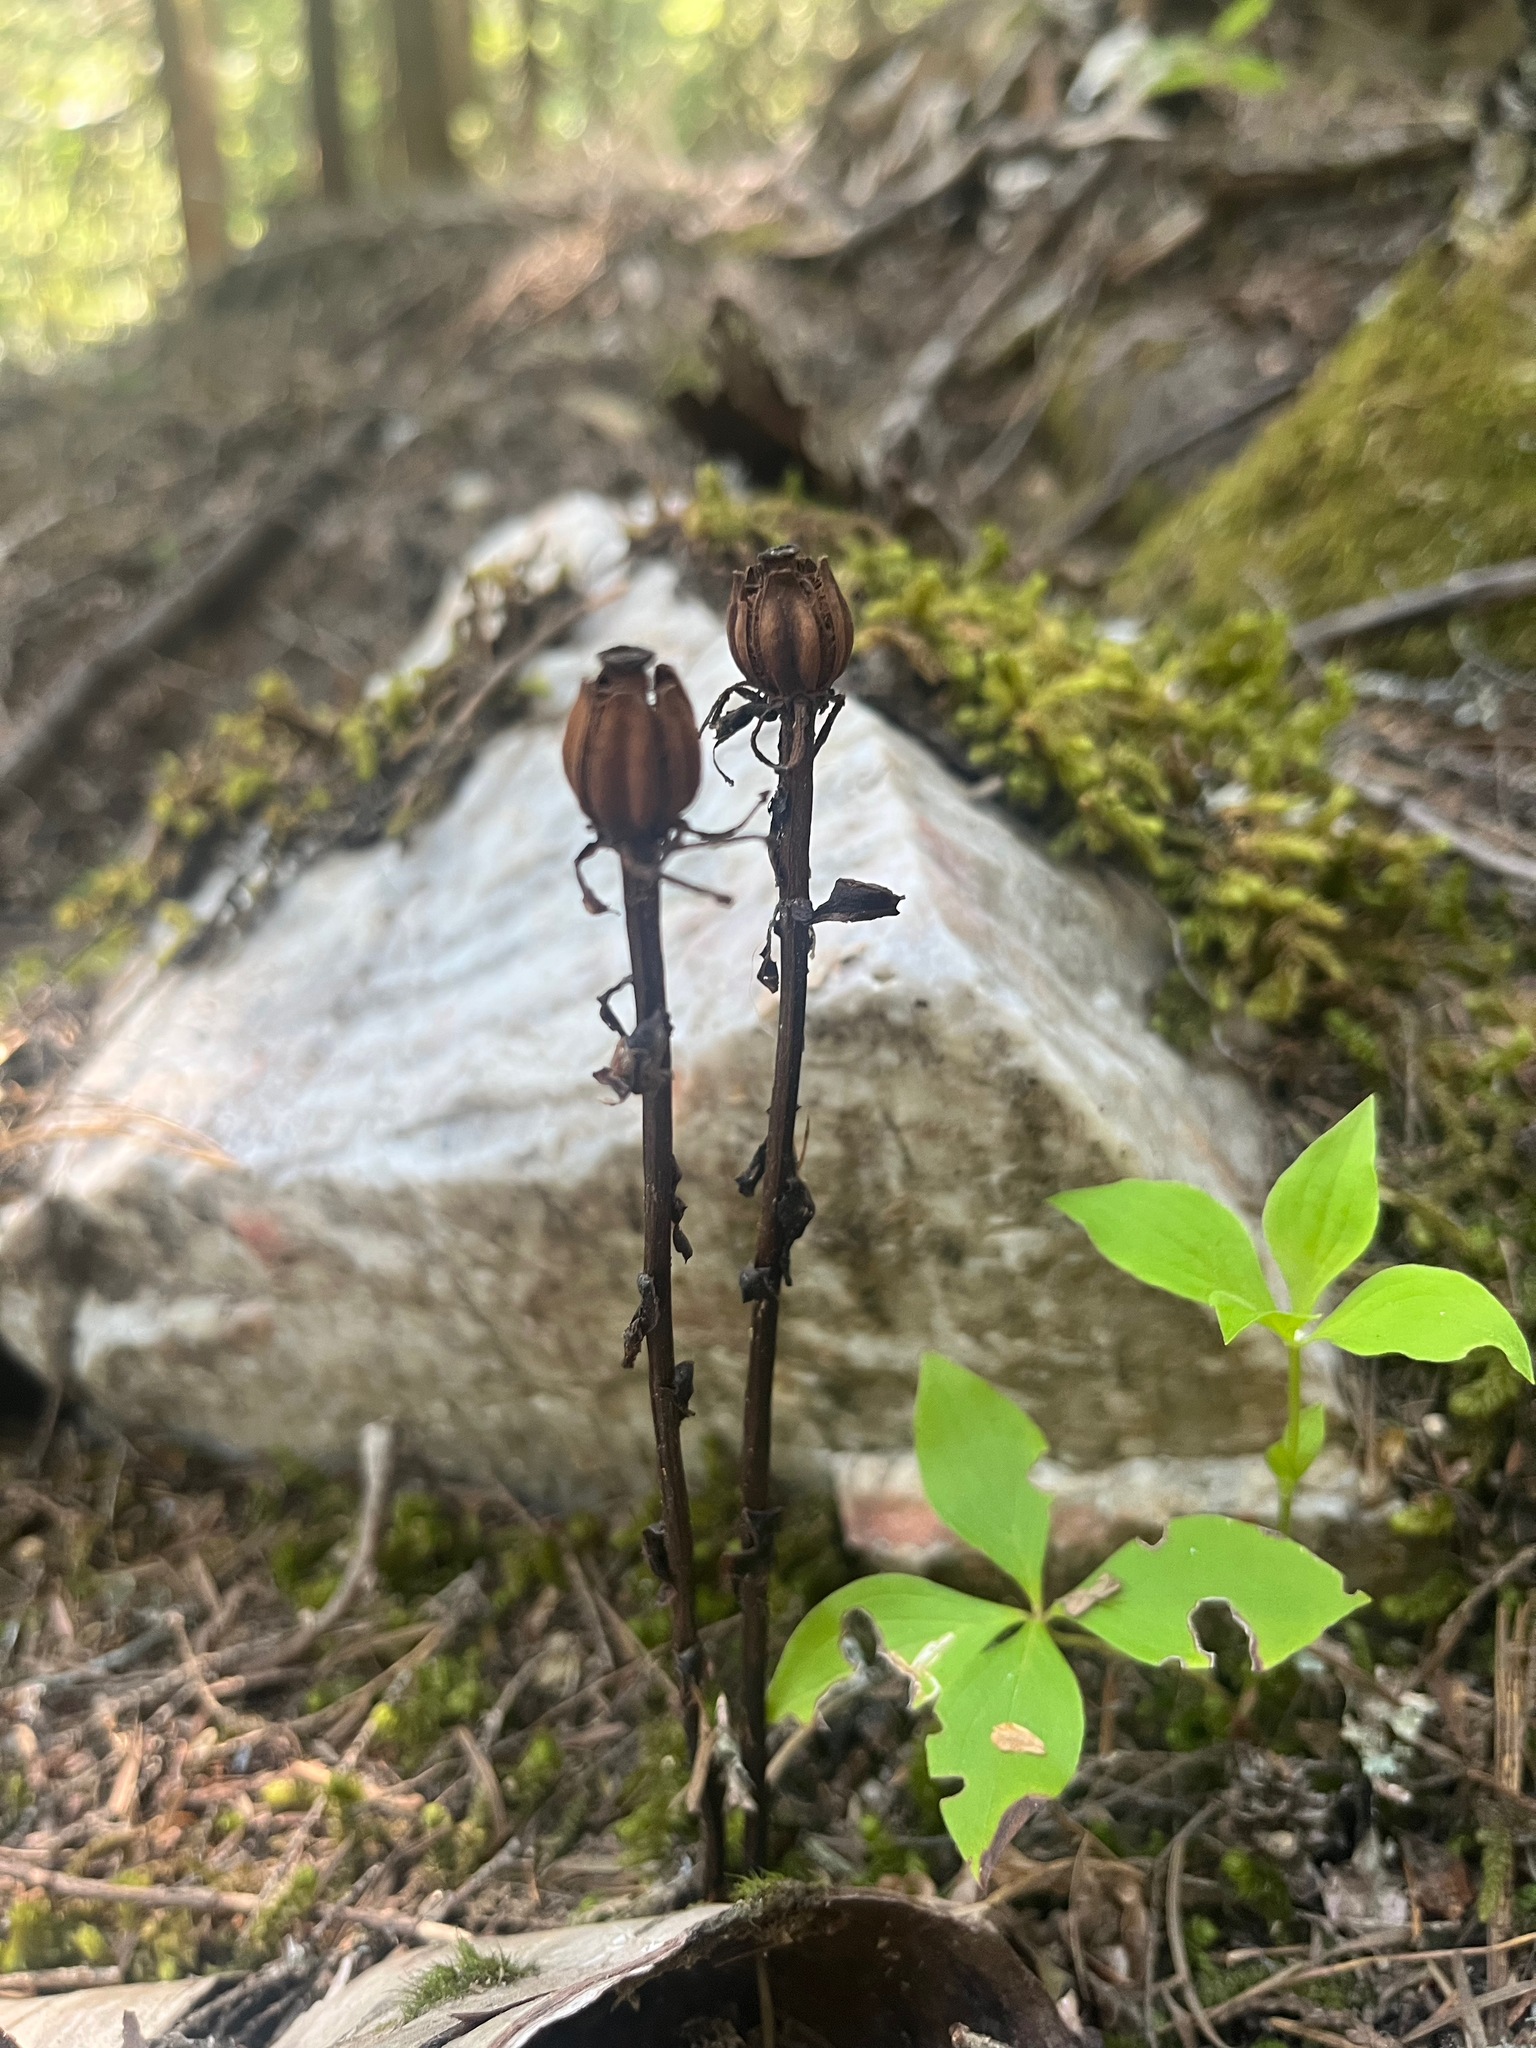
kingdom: Plantae
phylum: Tracheophyta
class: Magnoliopsida
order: Ericales
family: Ericaceae
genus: Monotropa
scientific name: Monotropa uniflora
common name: Convulsion root
